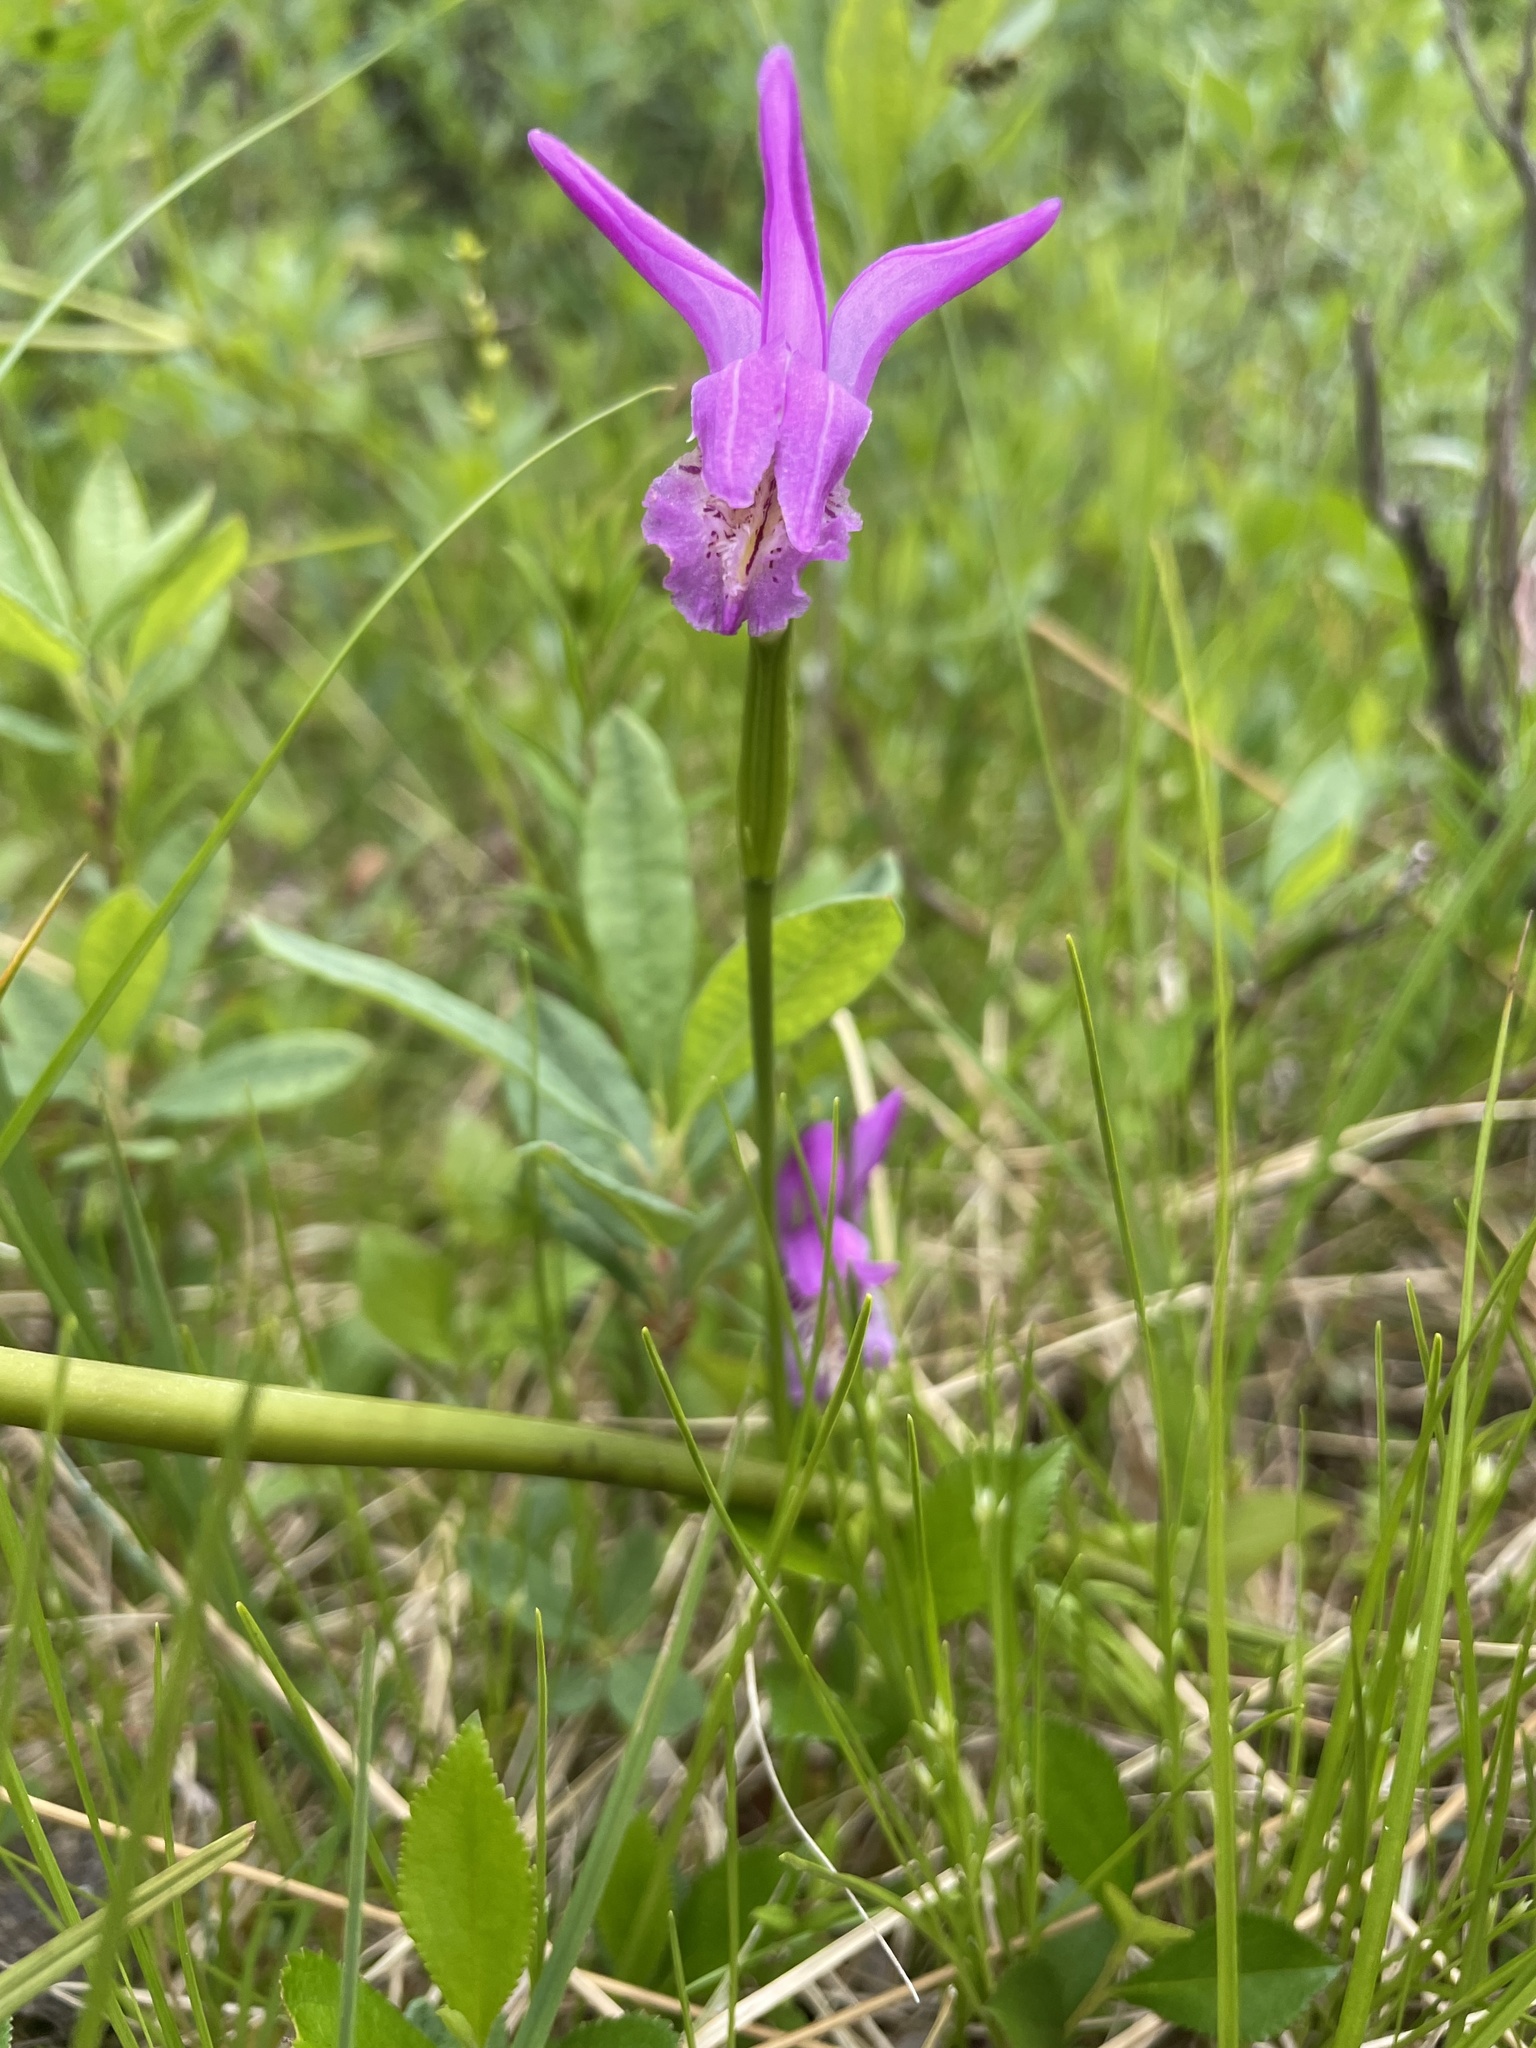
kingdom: Plantae
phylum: Tracheophyta
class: Liliopsida
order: Asparagales
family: Orchidaceae
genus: Arethusa
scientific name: Arethusa bulbosa
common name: Arethusa
